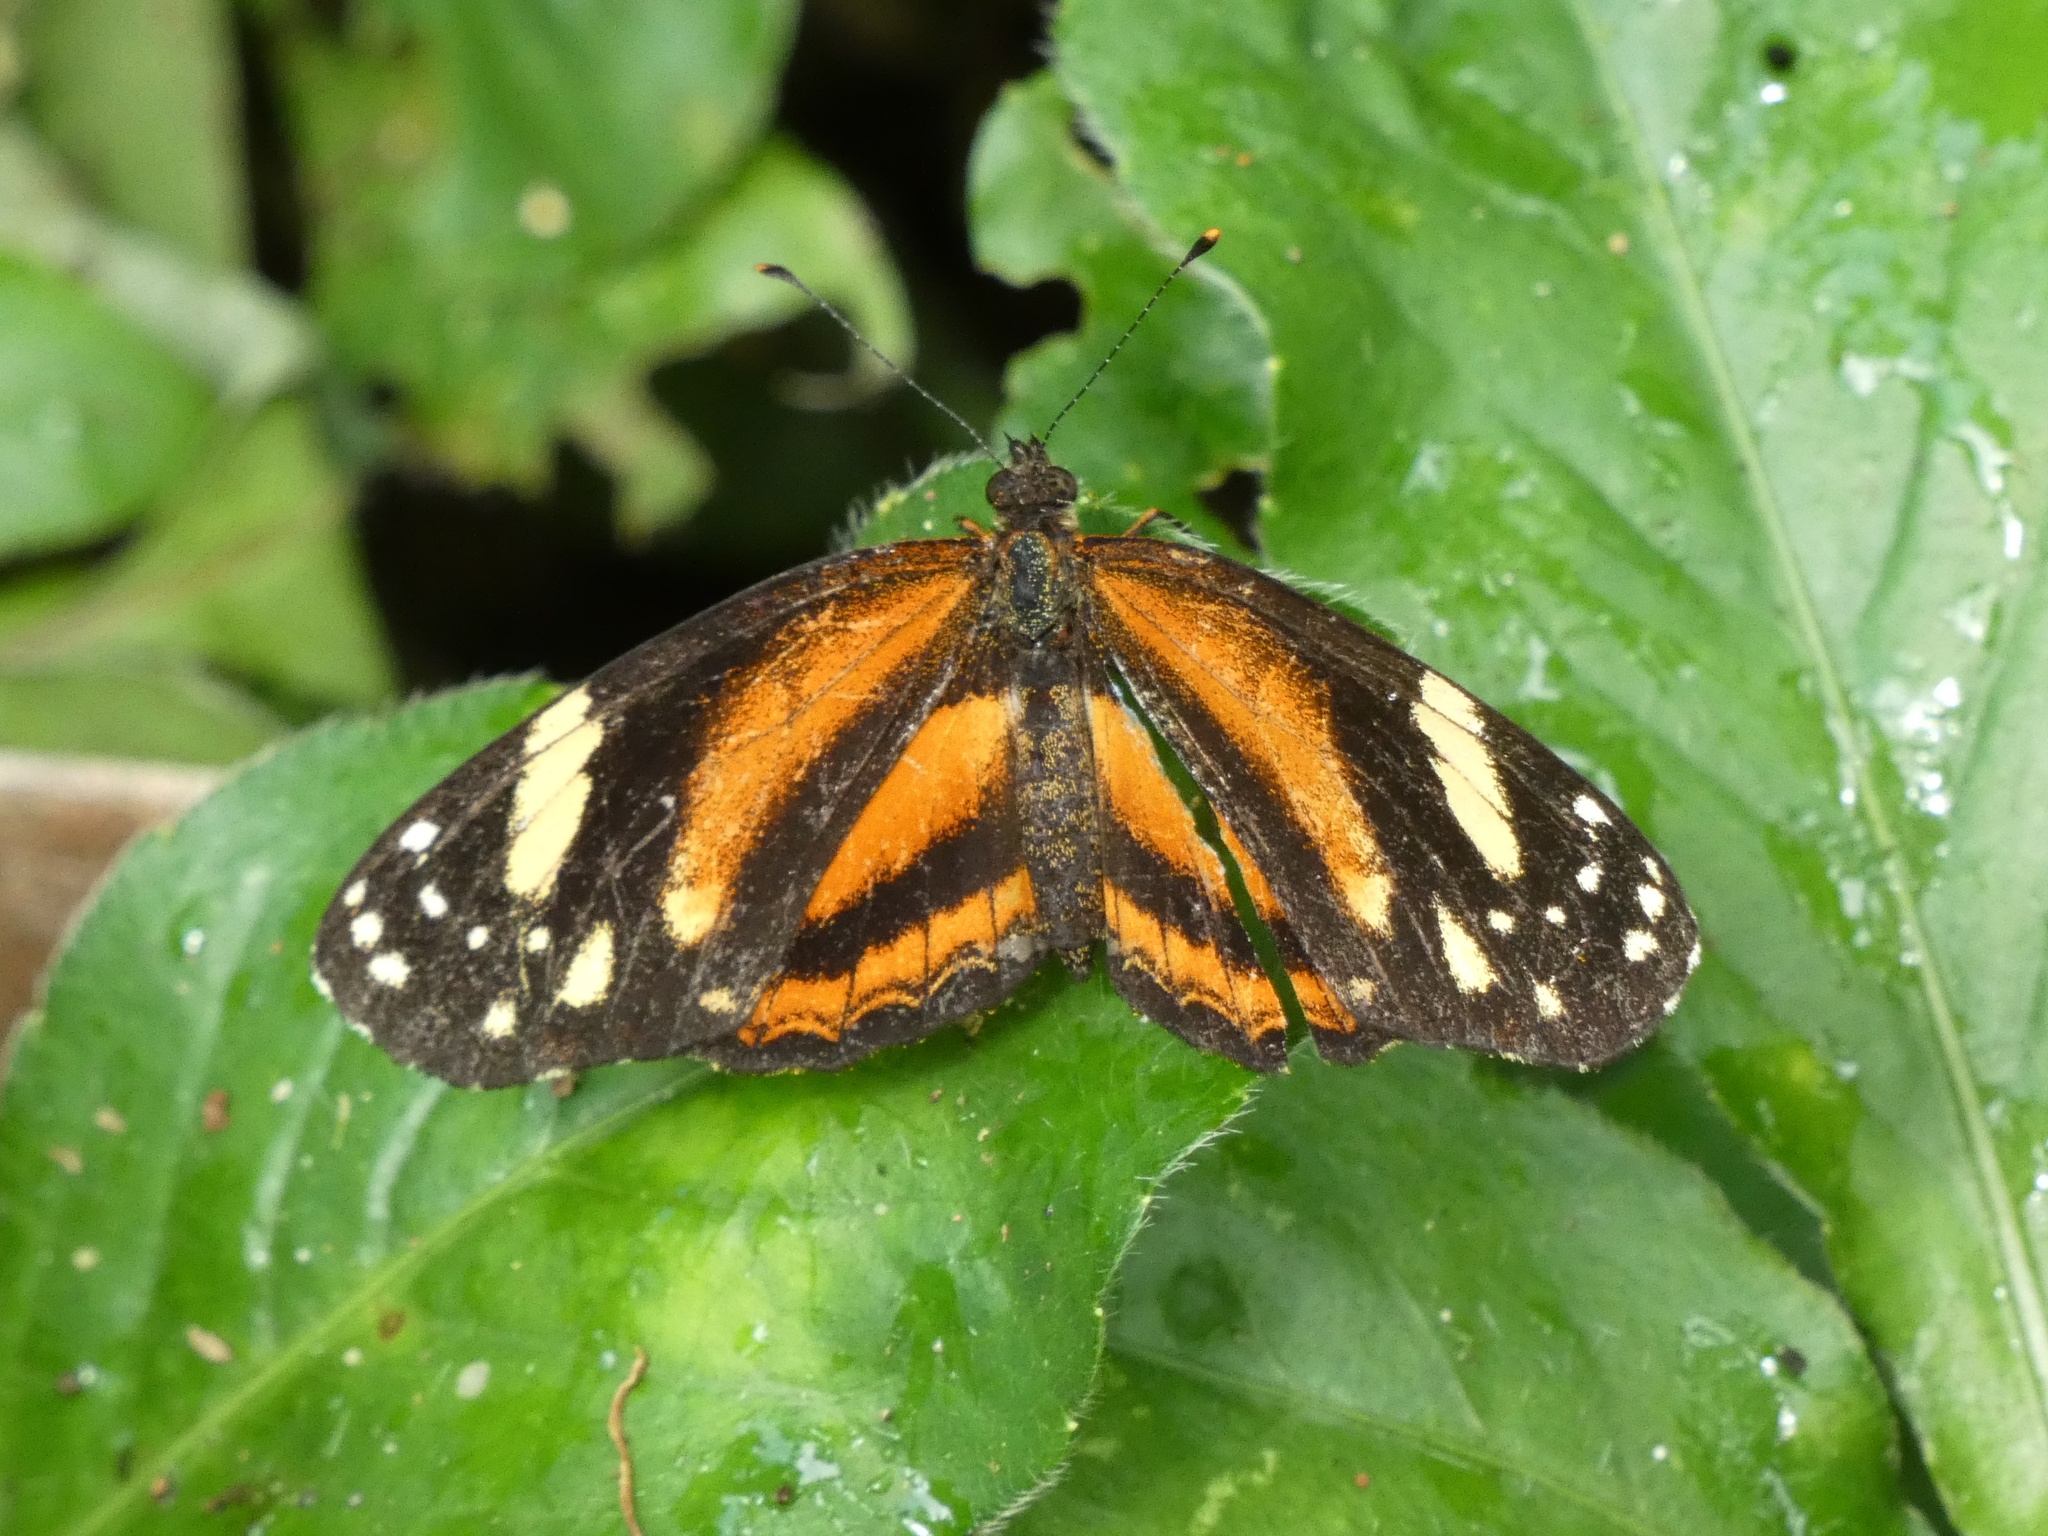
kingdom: Animalia
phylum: Arthropoda
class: Insecta
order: Lepidoptera
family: Nymphalidae
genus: Castilia
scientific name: Castilia eranites
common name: Smudged crescent
